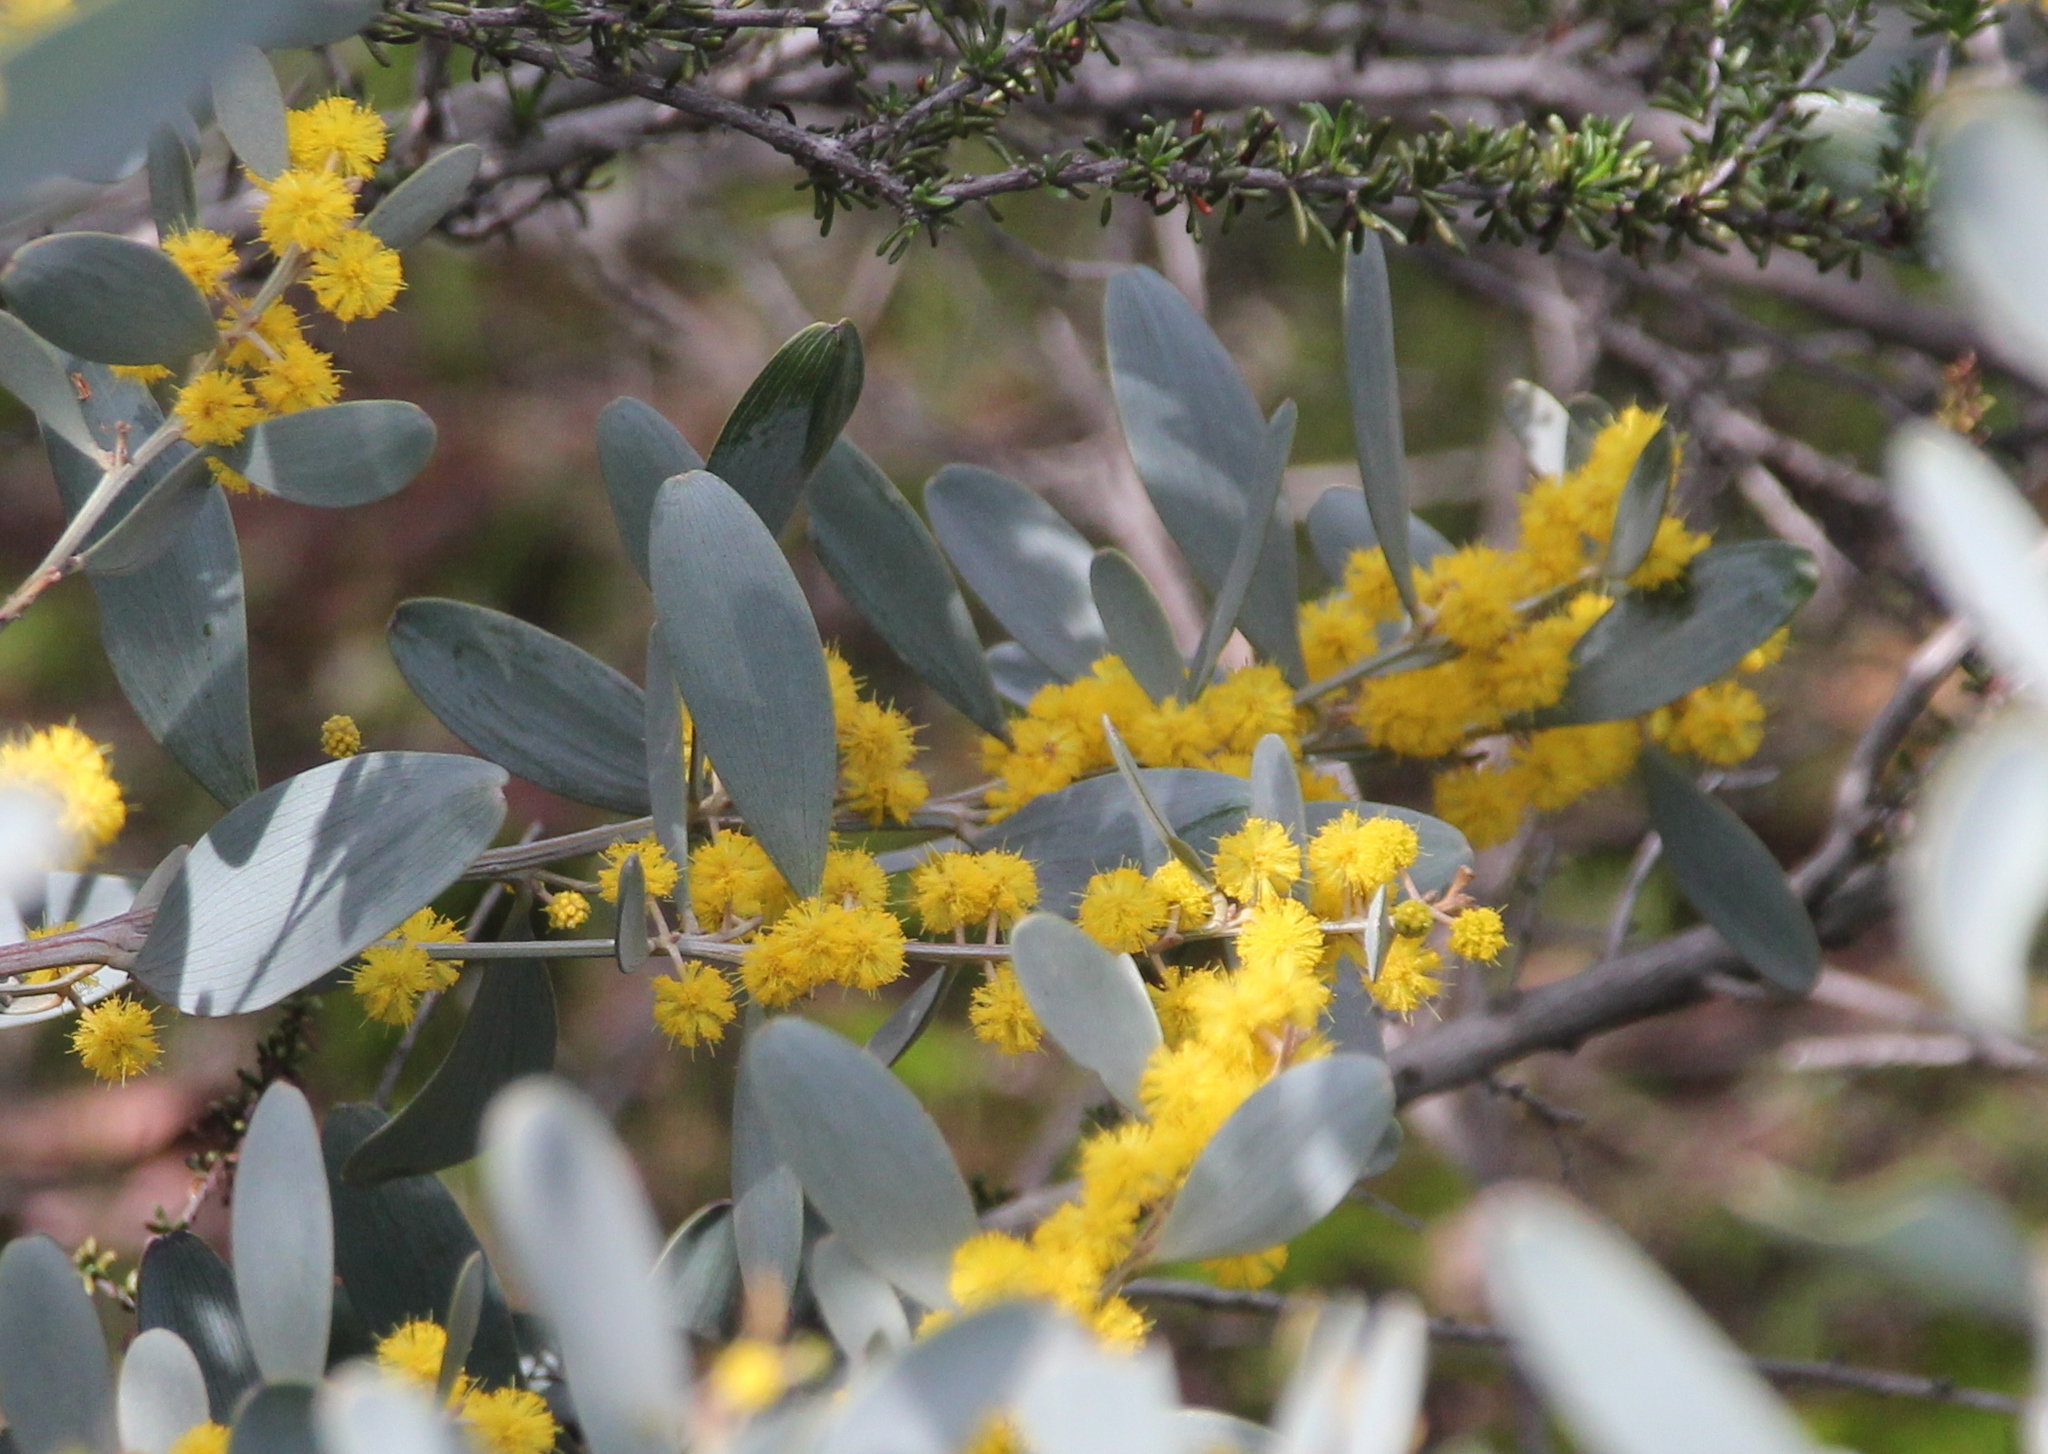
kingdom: Plantae
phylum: Tracheophyta
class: Magnoliopsida
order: Fabales
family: Fabaceae
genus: Acacia
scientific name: Acacia redolens
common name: Bank catclaw
